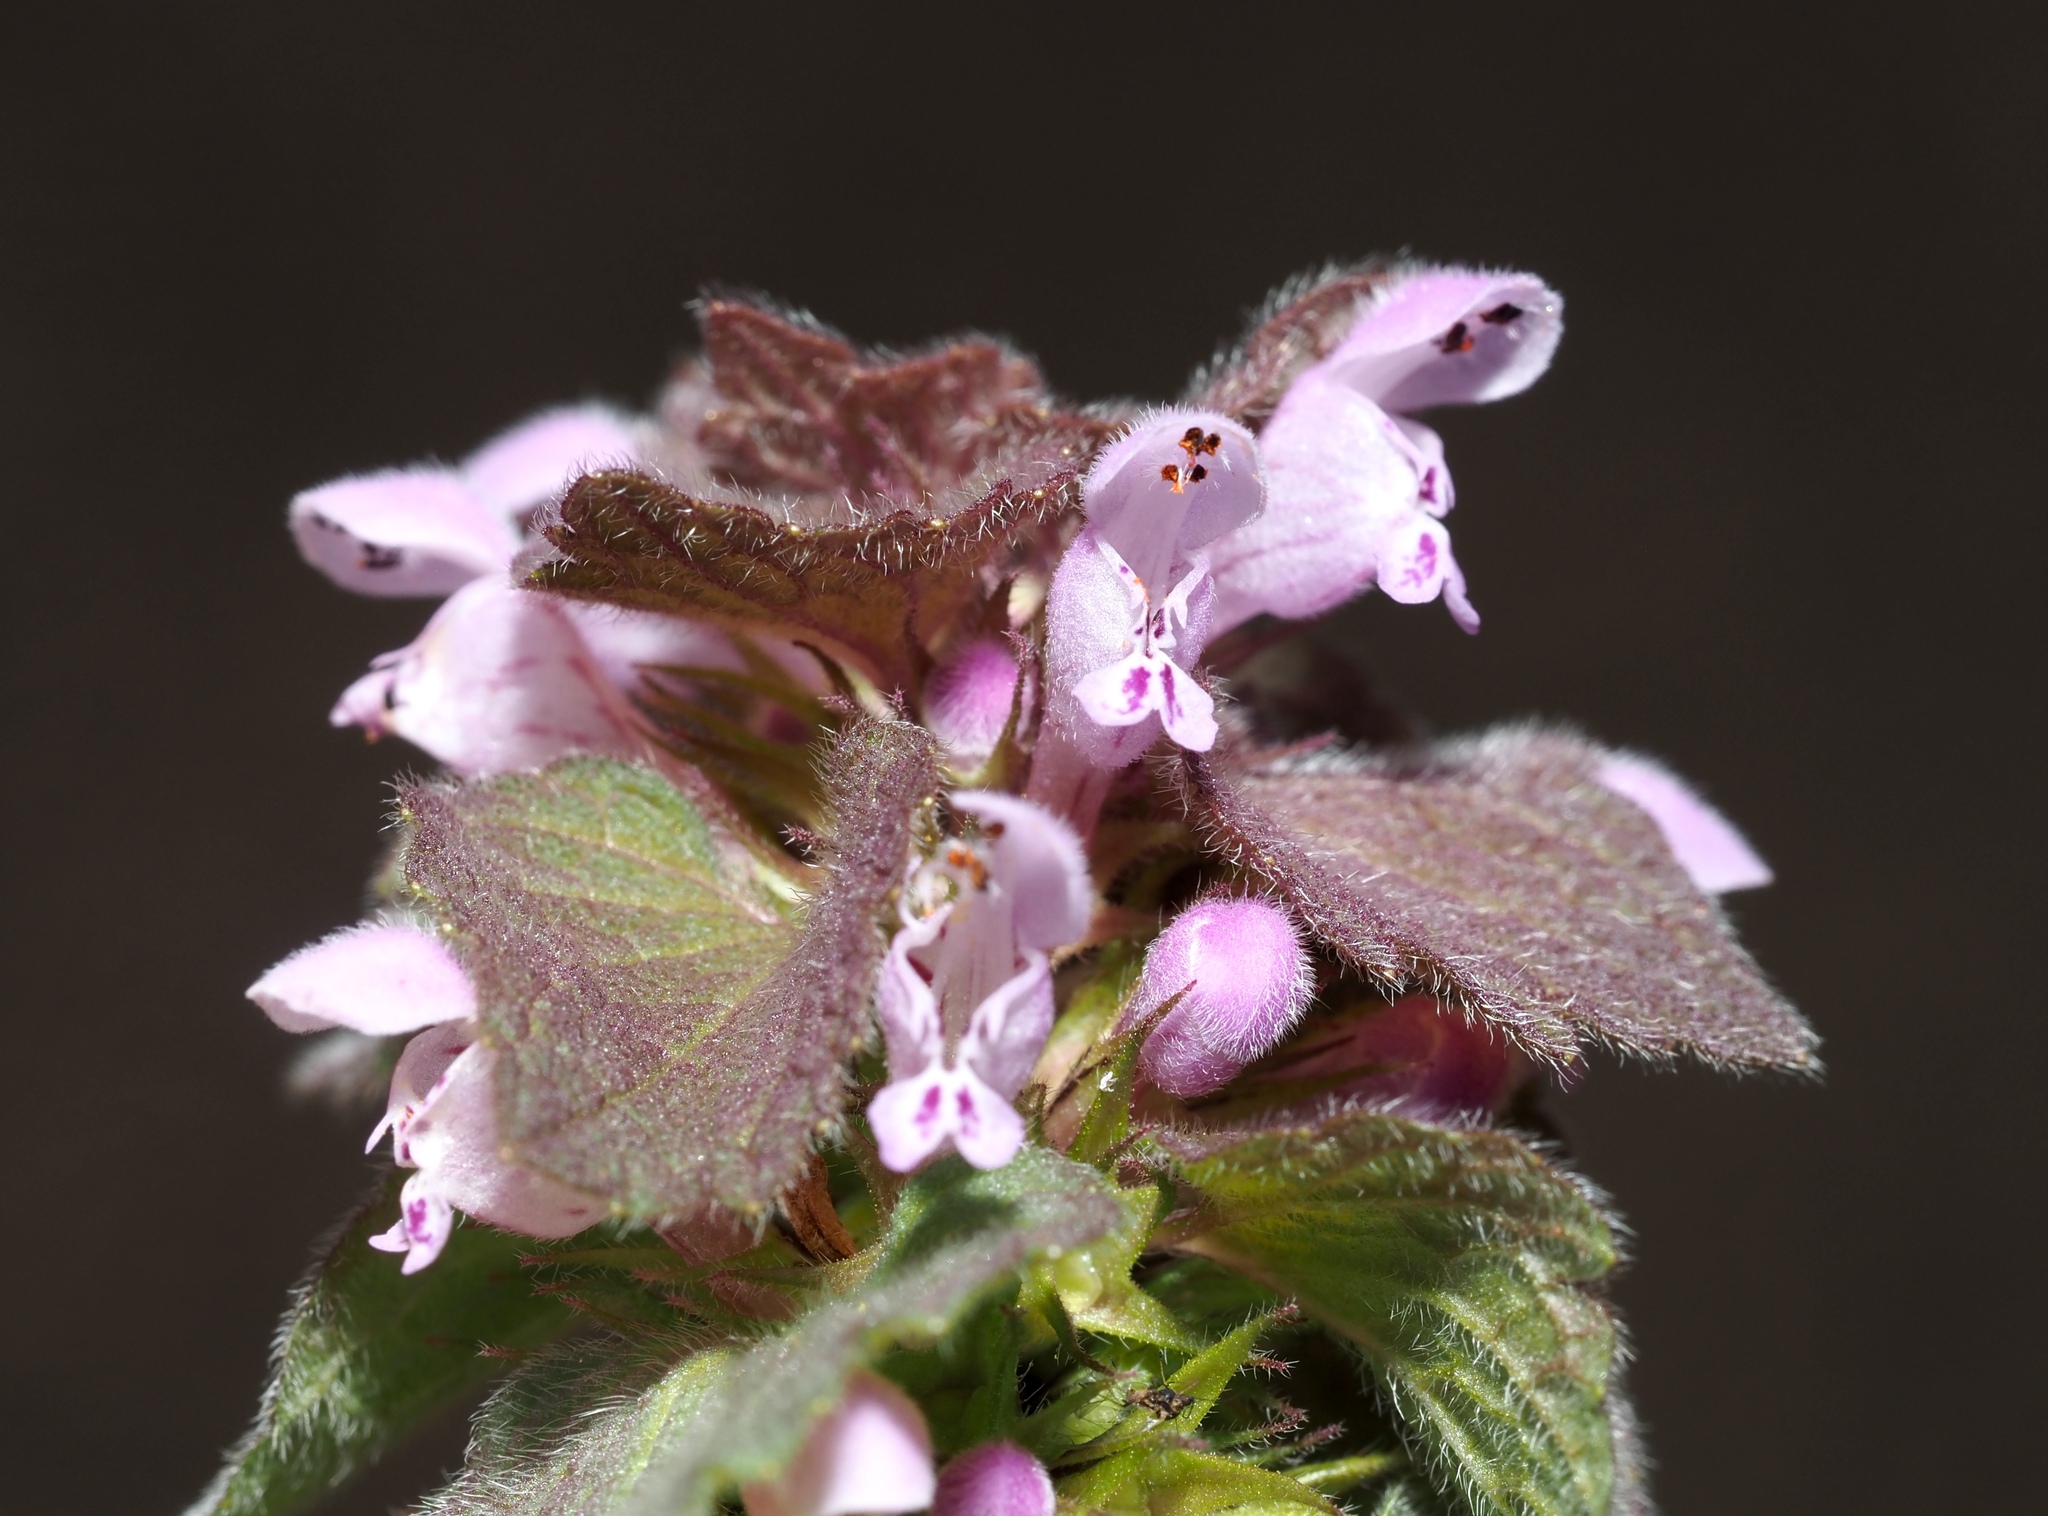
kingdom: Plantae
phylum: Tracheophyta
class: Magnoliopsida
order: Lamiales
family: Lamiaceae
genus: Lamium
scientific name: Lamium purpureum
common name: Red dead-nettle
